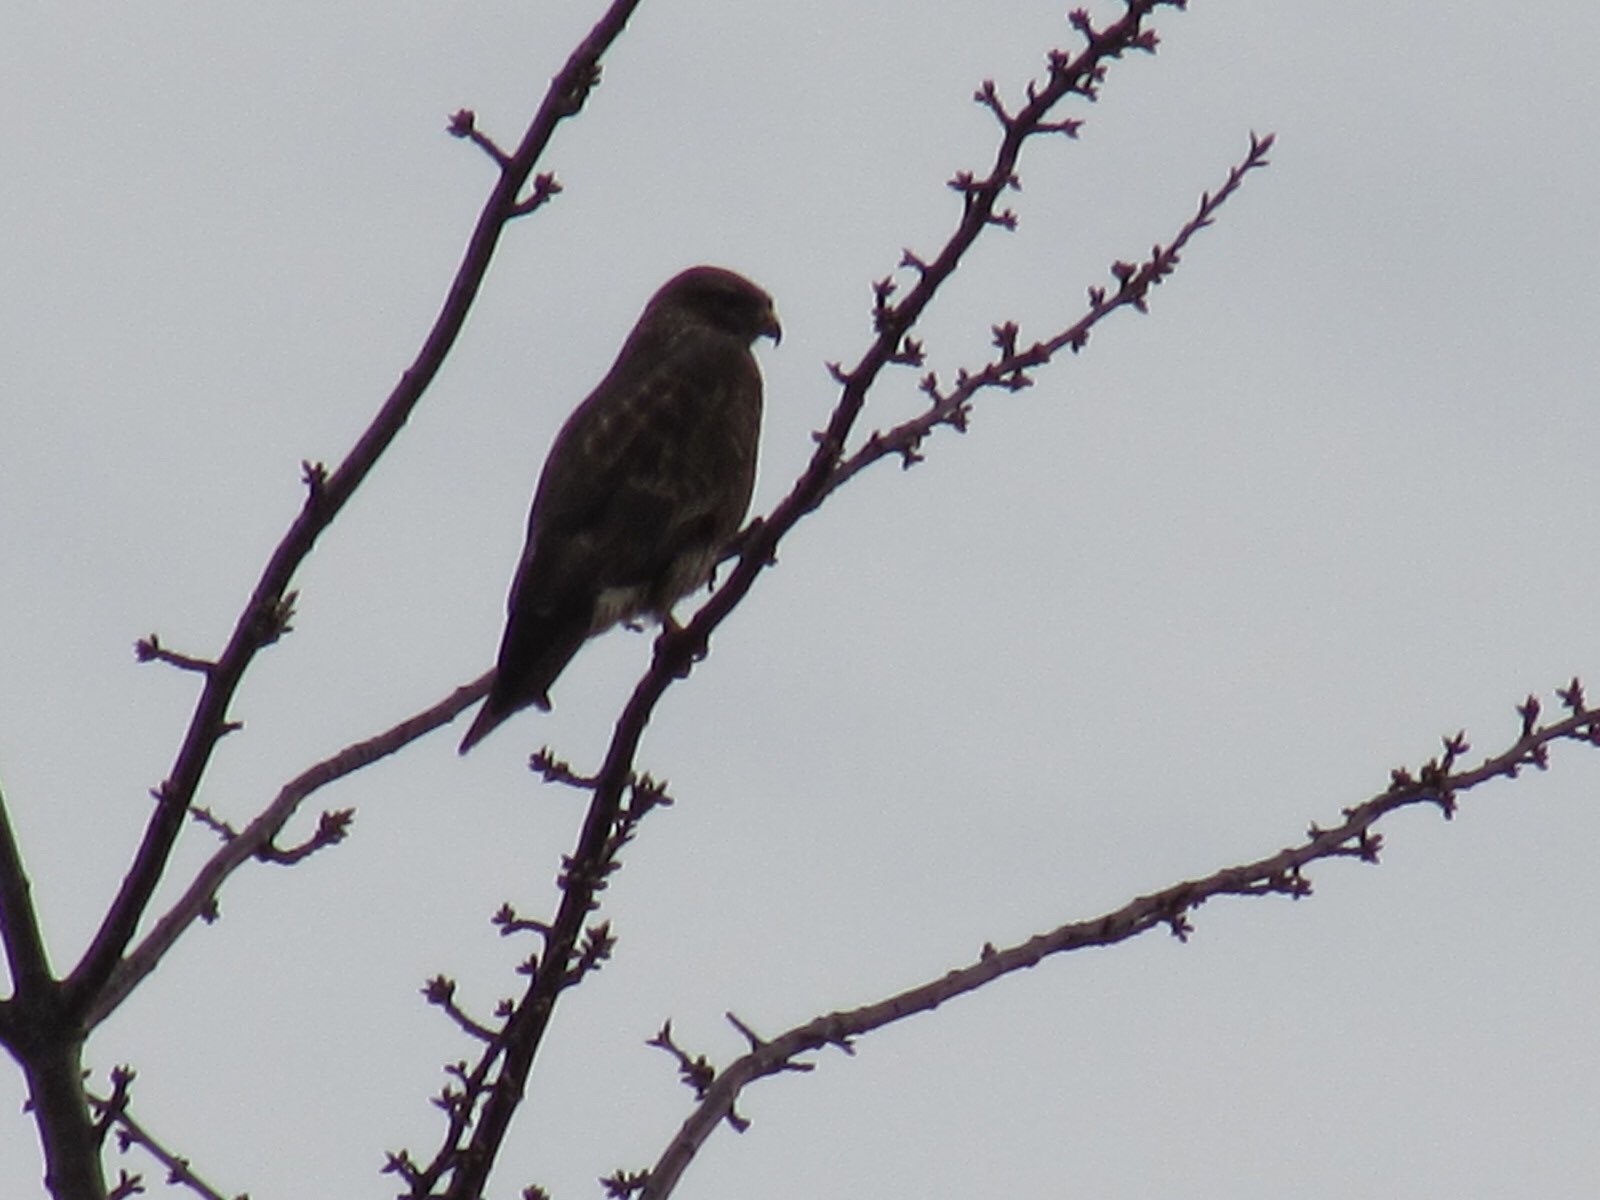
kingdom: Animalia
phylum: Chordata
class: Aves
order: Falconiformes
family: Falconidae
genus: Falco
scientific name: Falco tinnunculus
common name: Common kestrel
